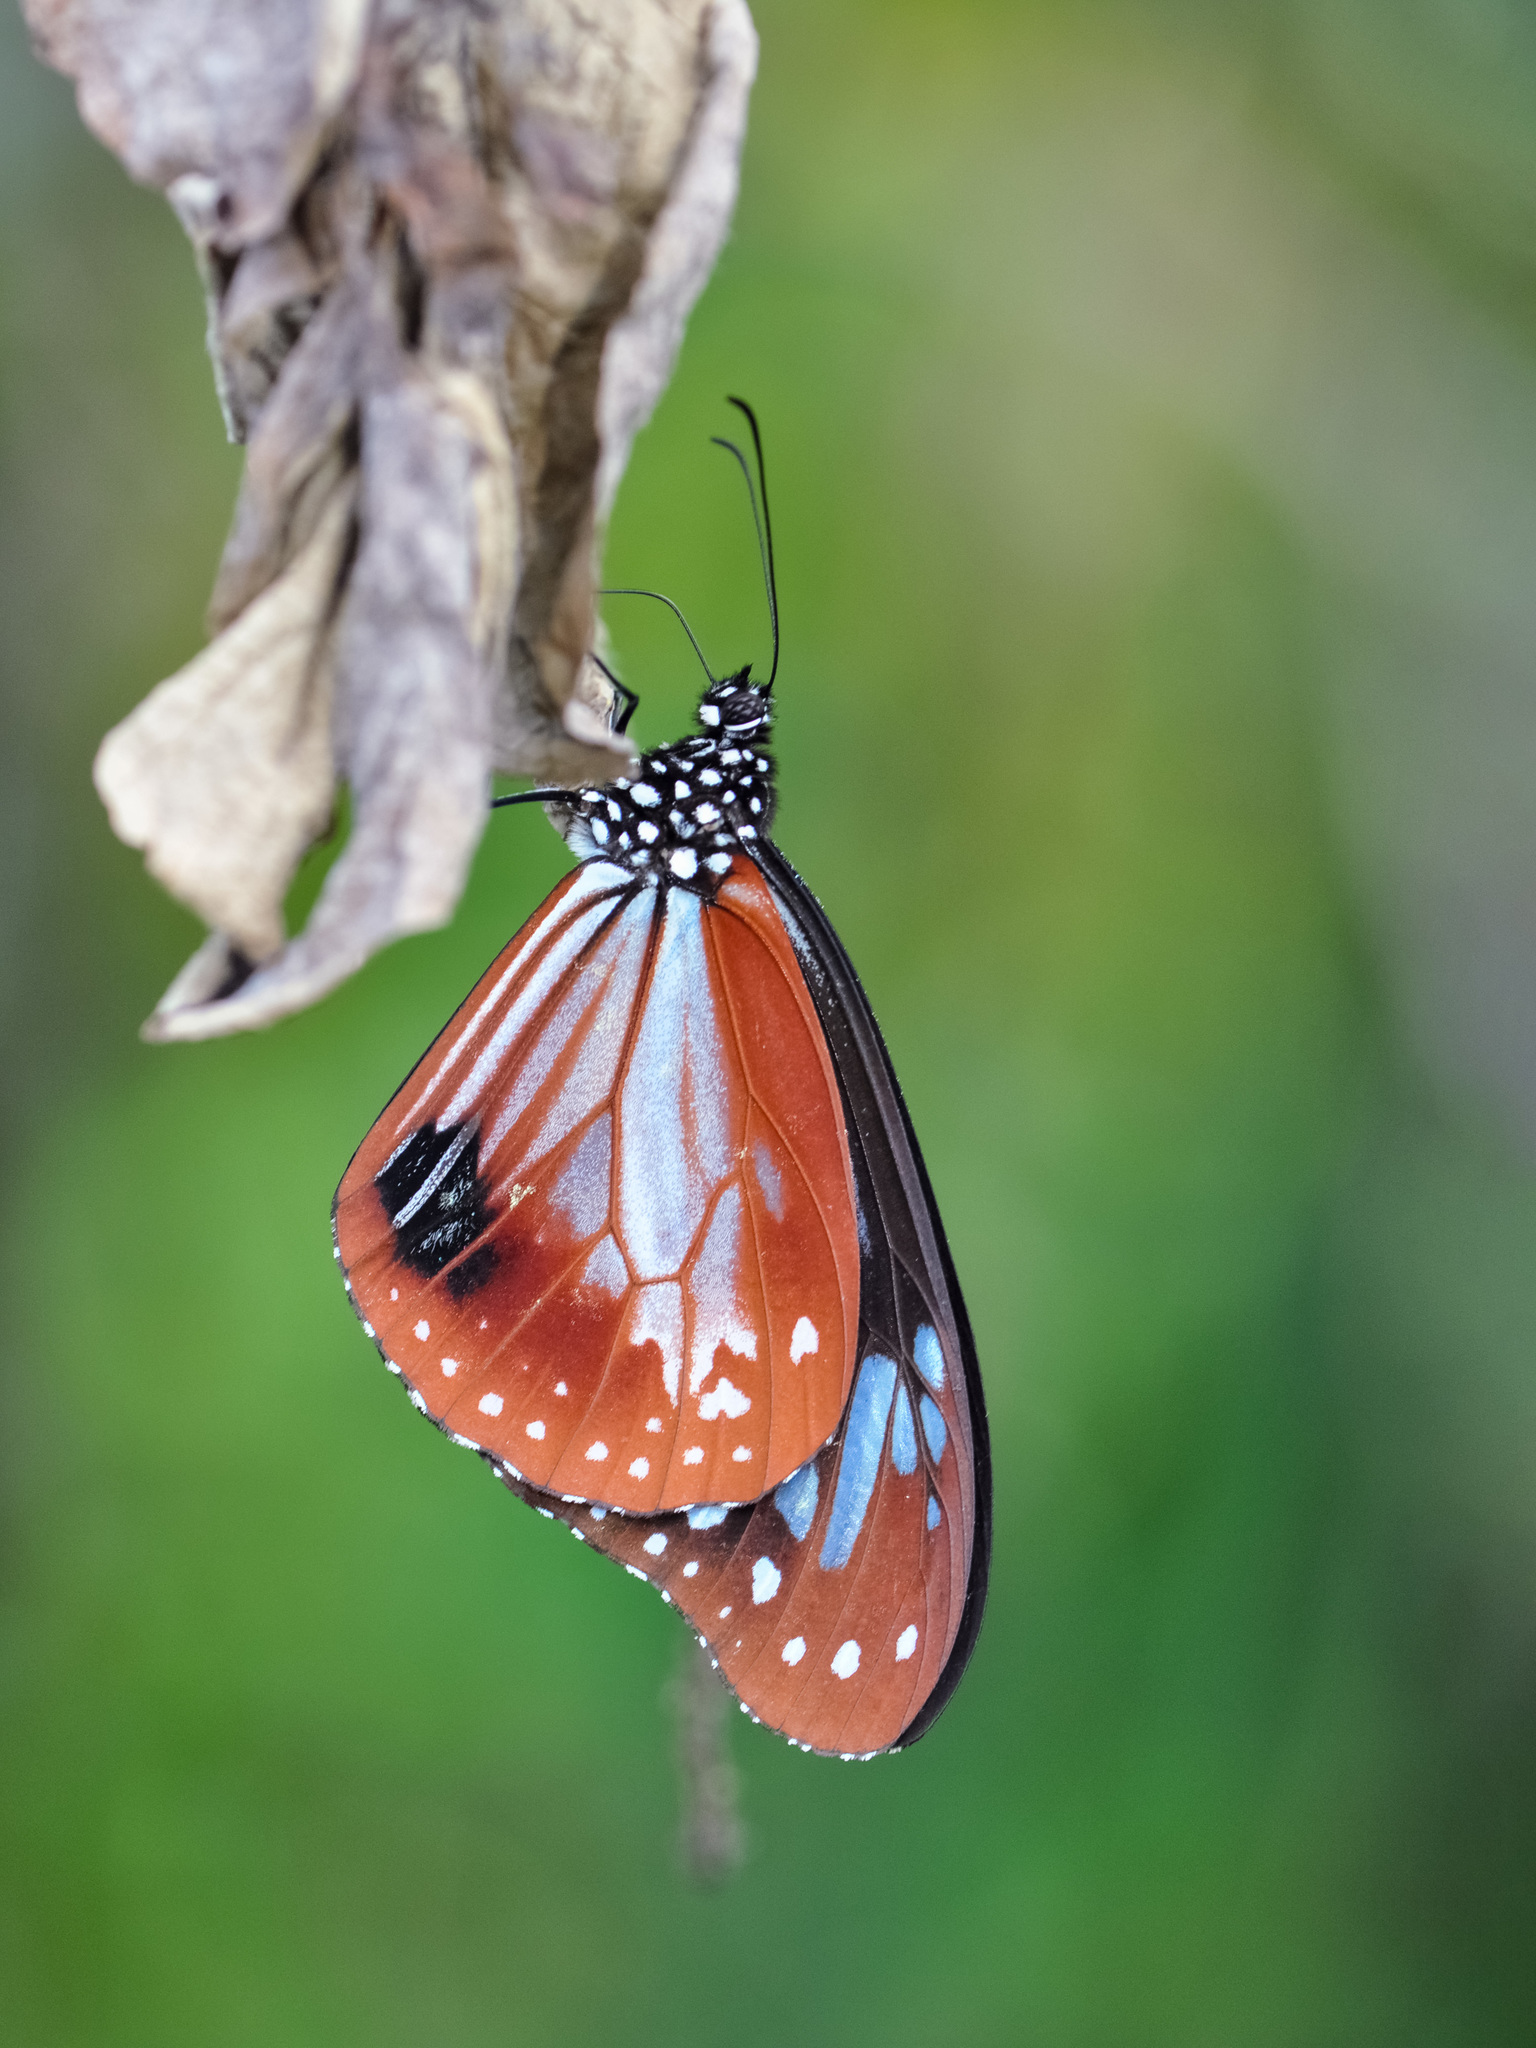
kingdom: Animalia
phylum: Arthropoda
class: Insecta
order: Lepidoptera
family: Nymphalidae
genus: Parantica
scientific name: Parantica sita
